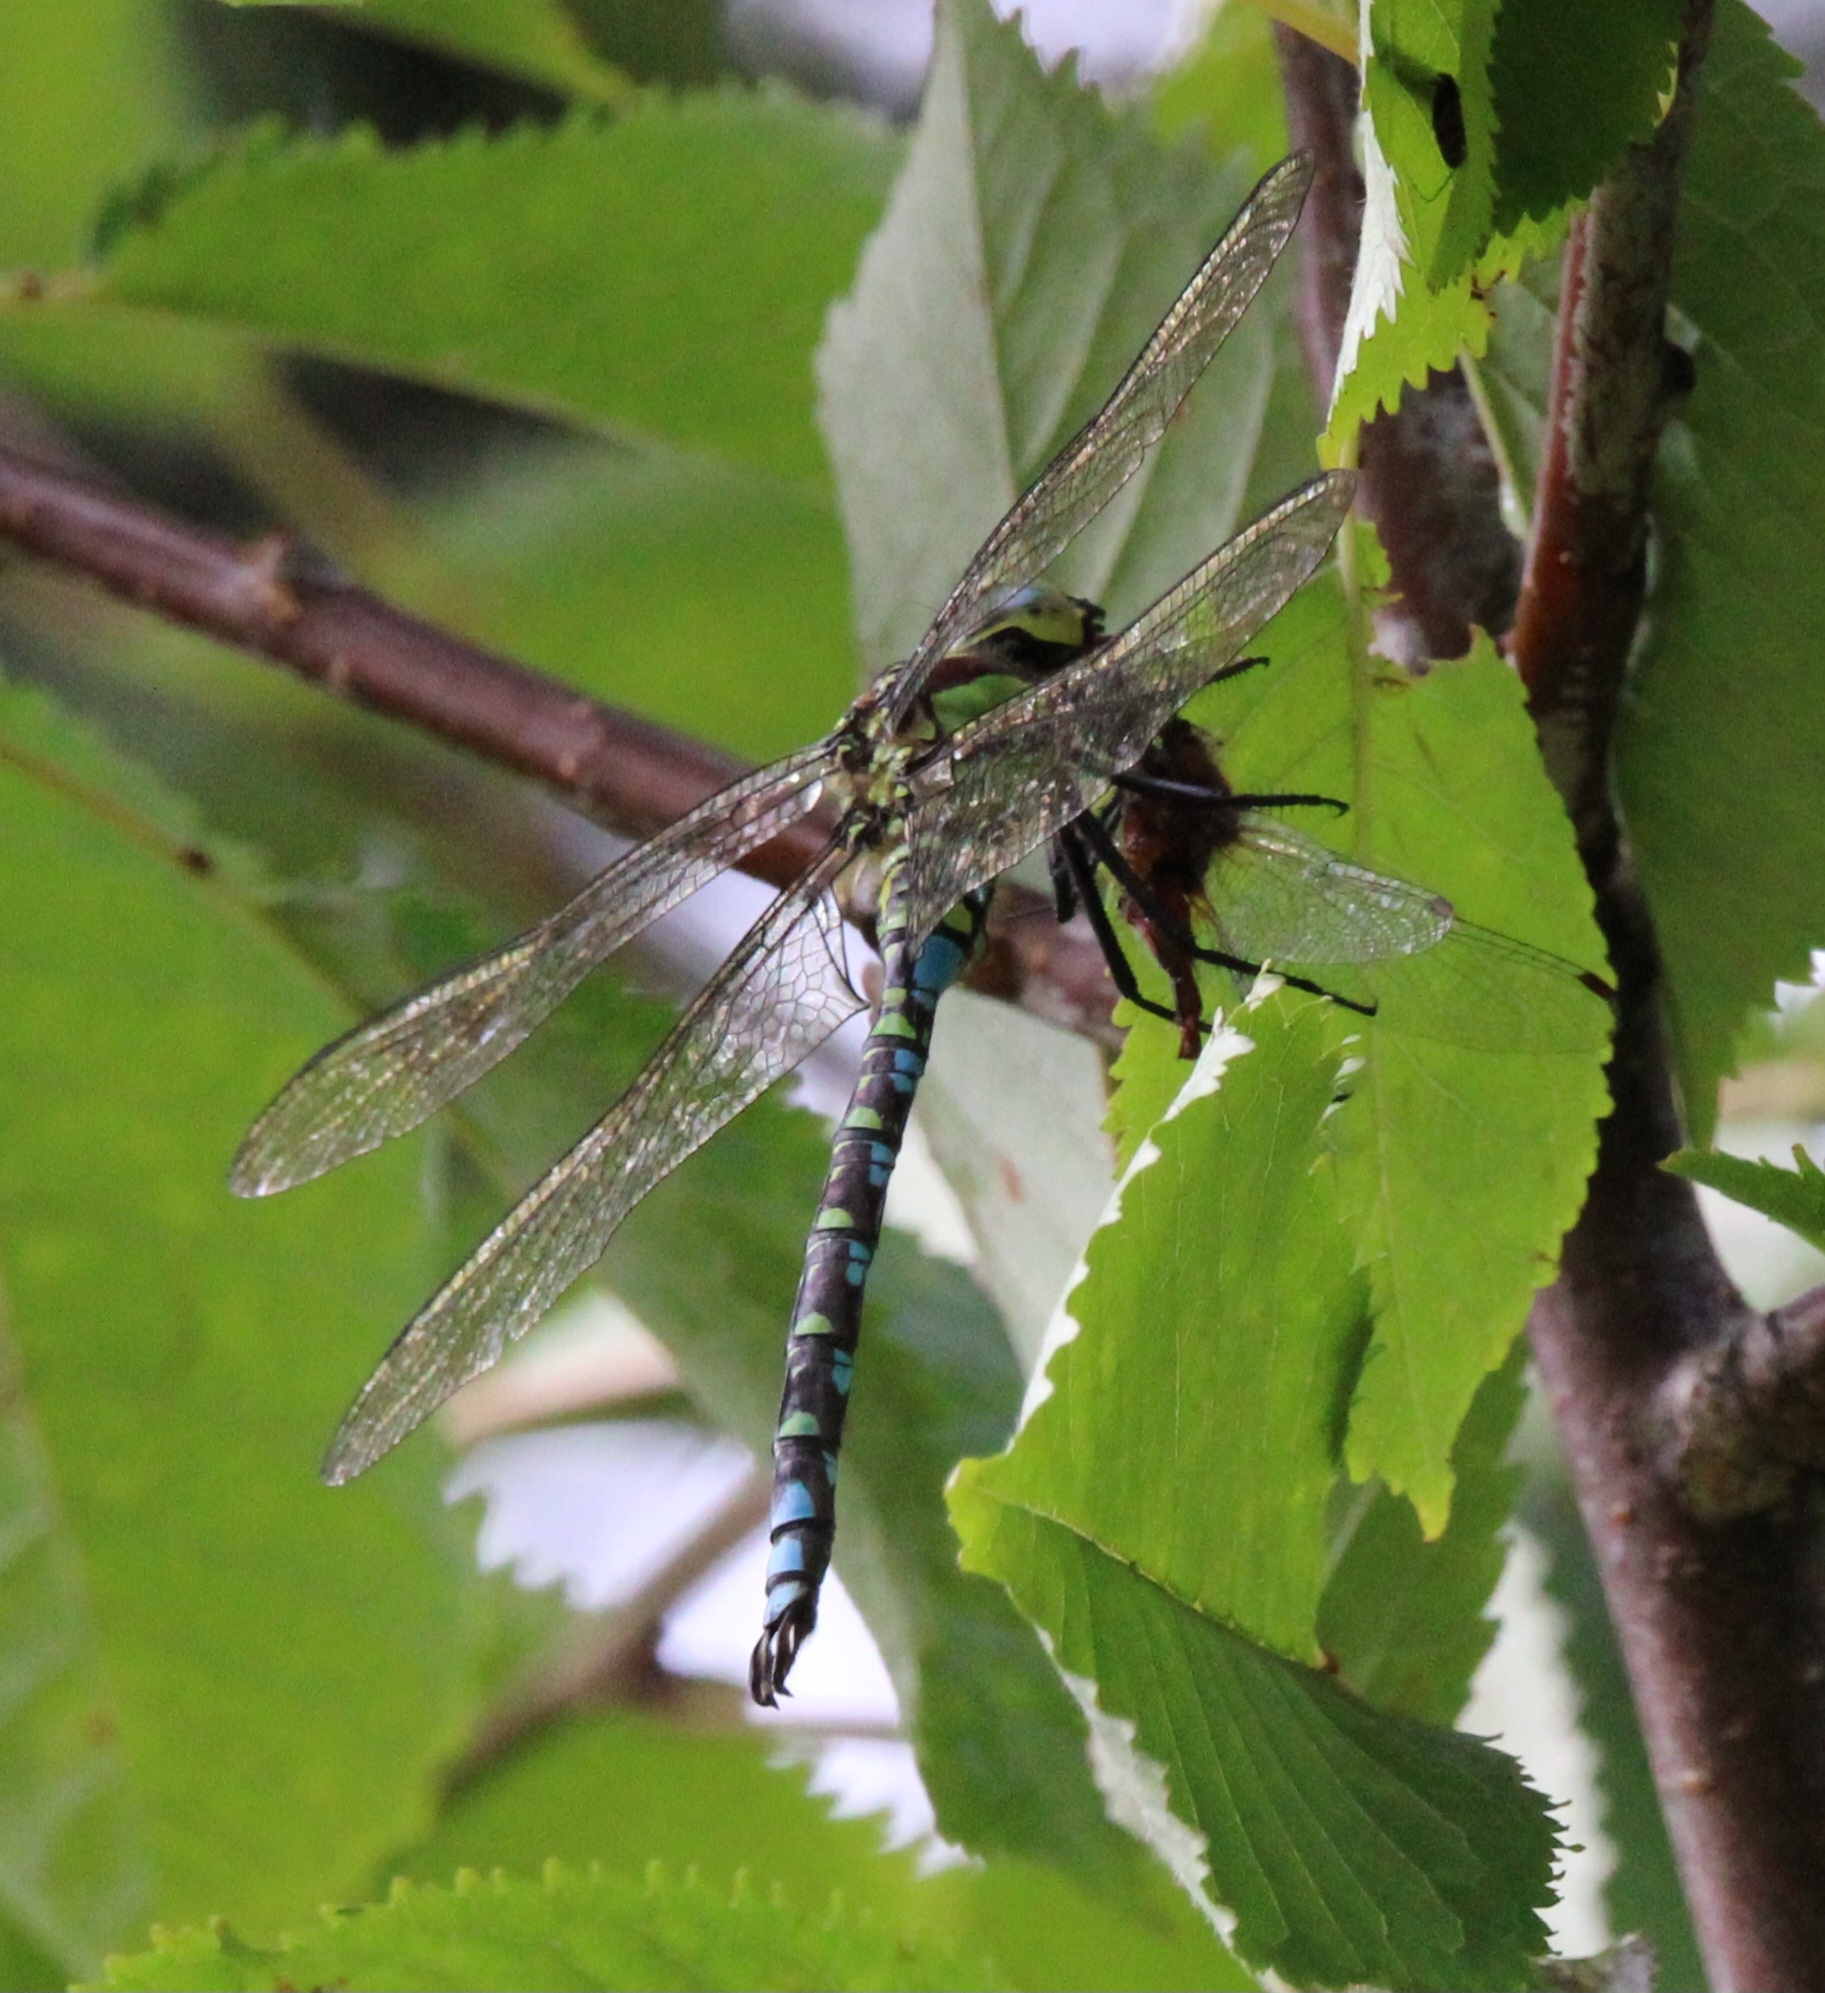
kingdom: Animalia
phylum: Arthropoda
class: Insecta
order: Odonata
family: Aeshnidae
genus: Aeshna
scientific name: Aeshna cyanea
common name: Southern hawker
